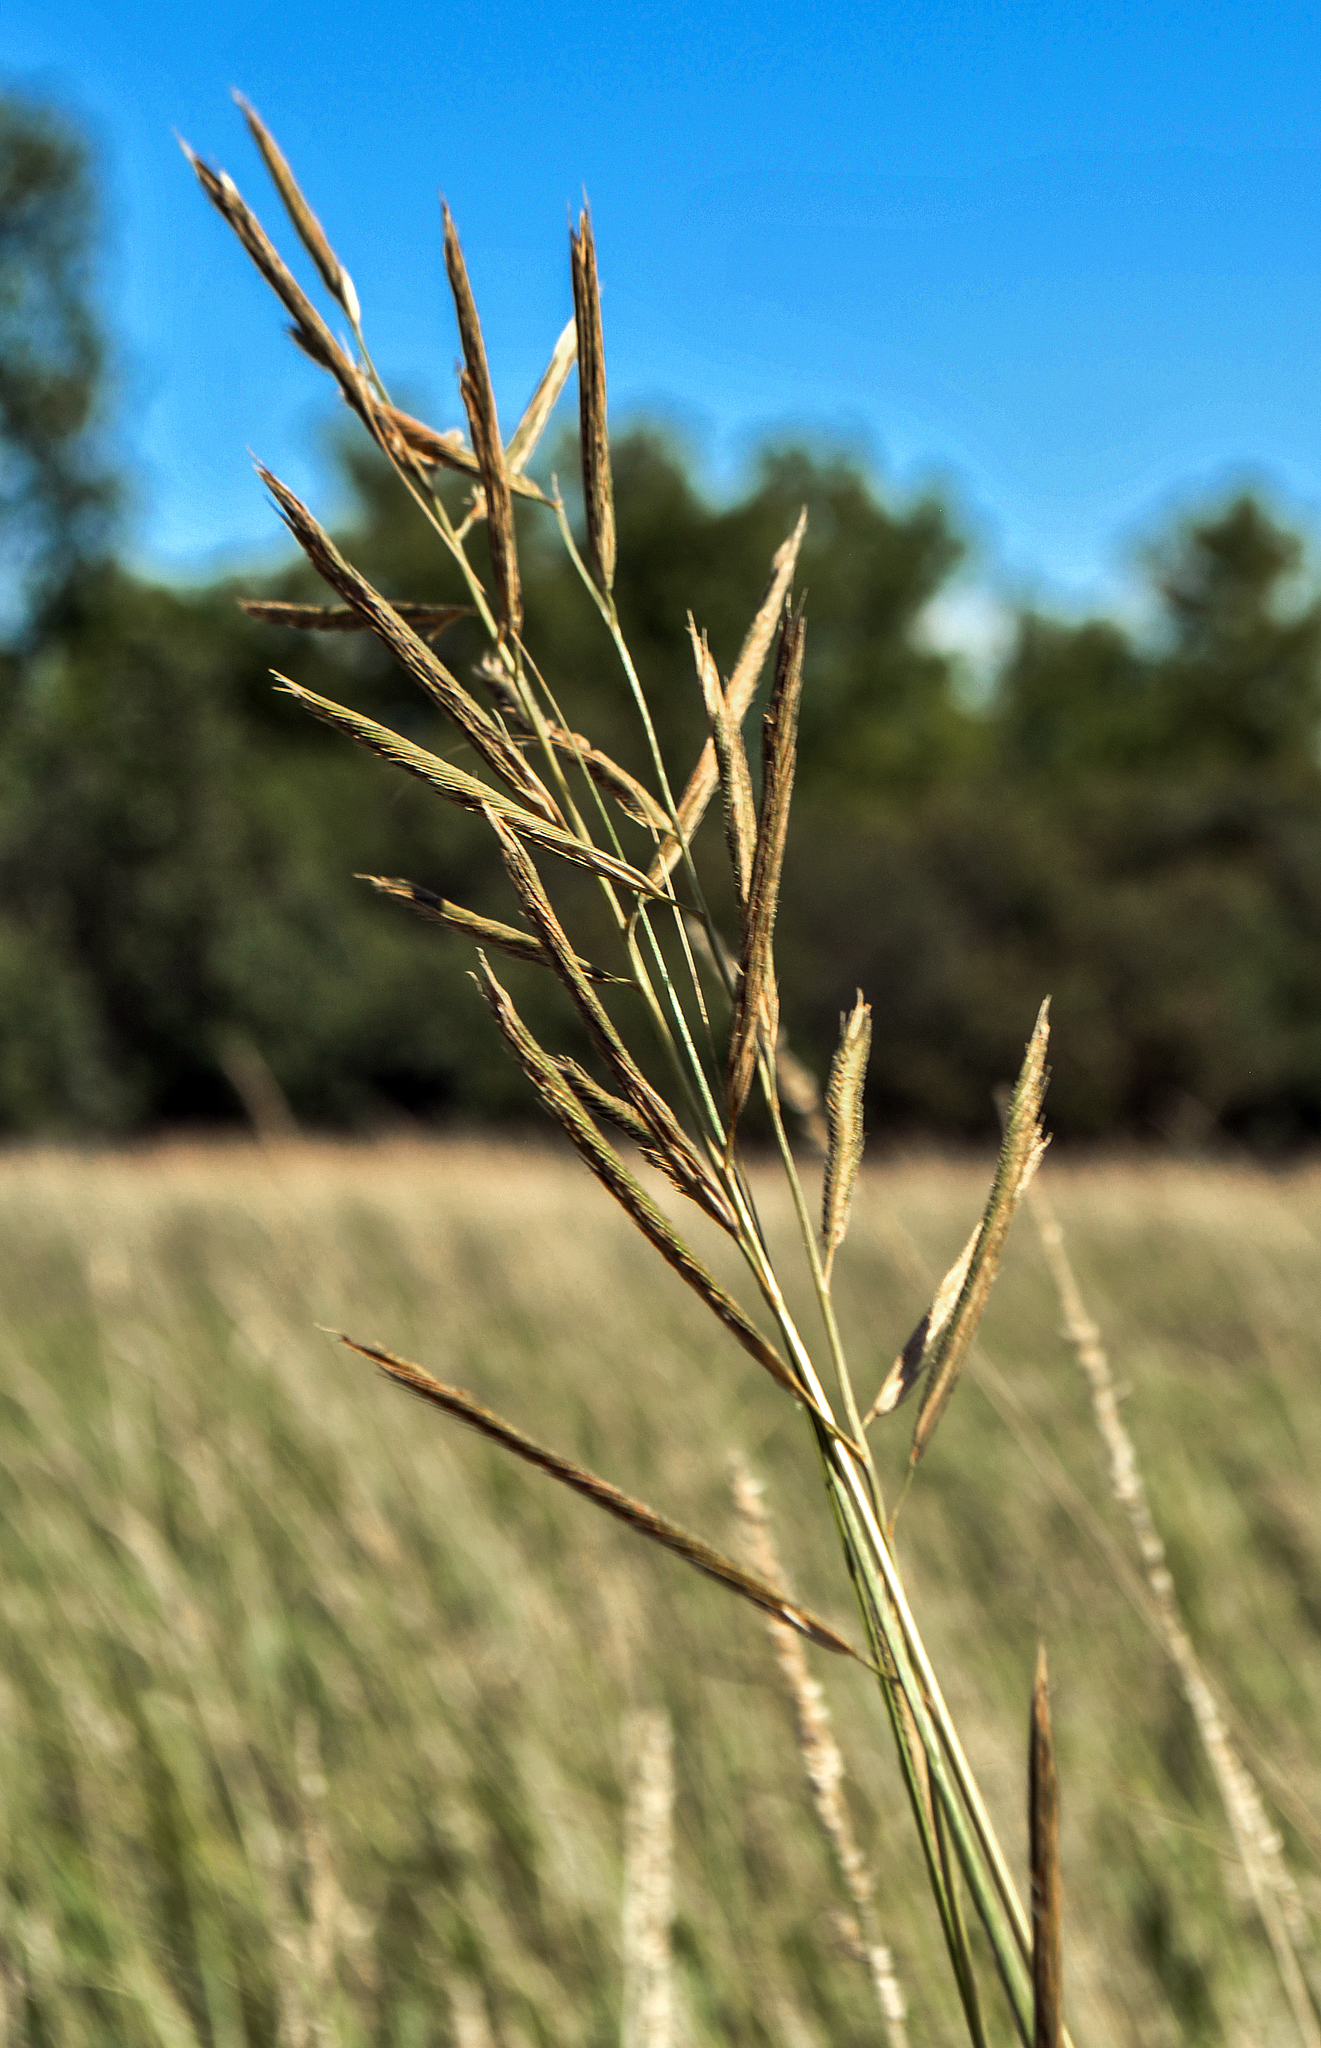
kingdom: Plantae
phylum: Tracheophyta
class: Liliopsida
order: Poales
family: Poaceae
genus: Sporobolus
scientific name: Sporobolus michauxianus
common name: Freshwater cordgrass
